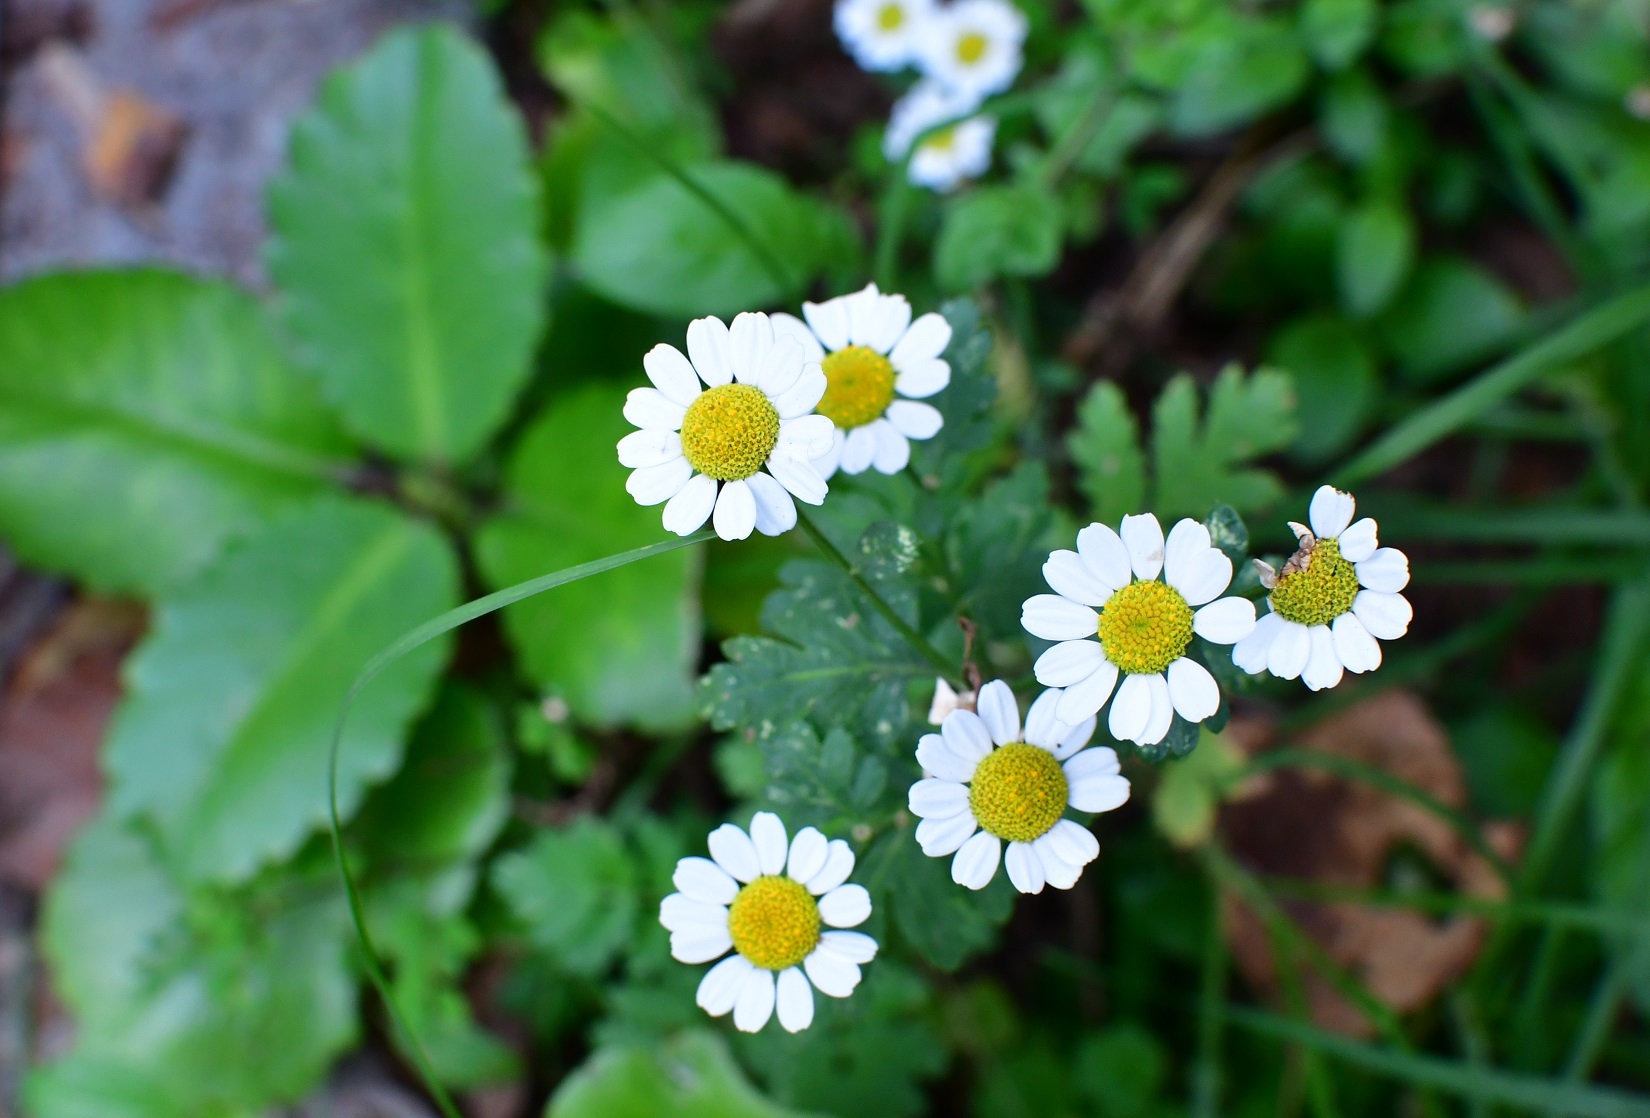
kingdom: Plantae
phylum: Tracheophyta
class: Magnoliopsida
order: Asterales
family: Asteraceae
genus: Tanacetum
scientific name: Tanacetum parthenium
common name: Feverfew
